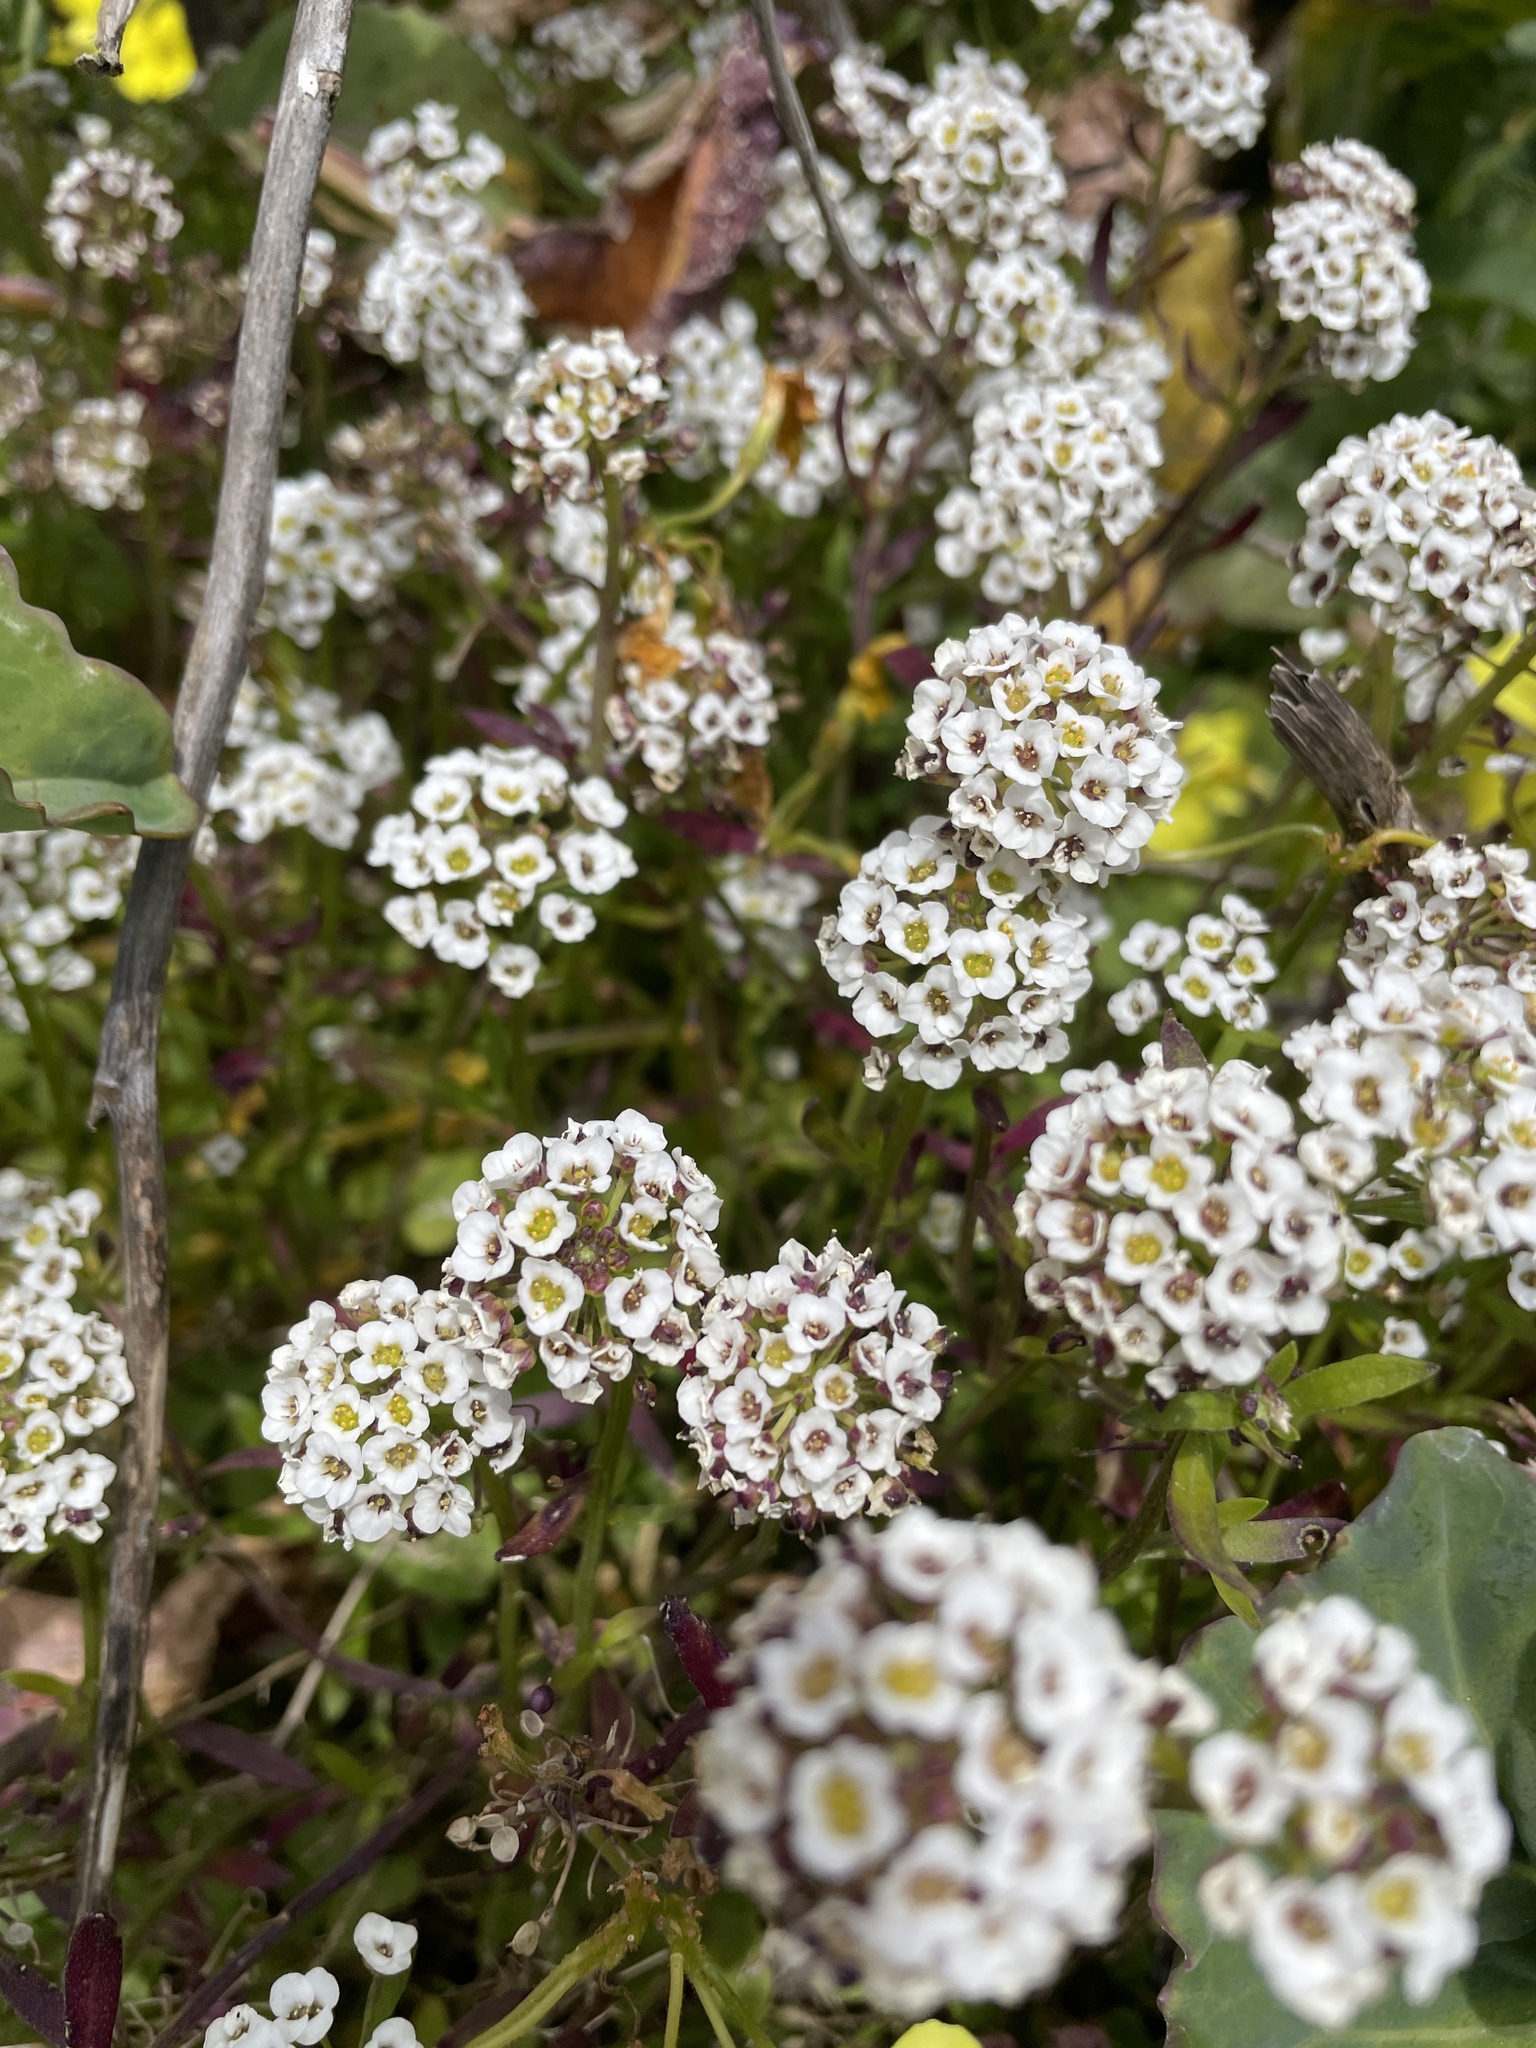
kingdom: Plantae
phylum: Tracheophyta
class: Magnoliopsida
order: Brassicales
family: Brassicaceae
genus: Lobularia
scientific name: Lobularia maritima
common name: Sweet alison
